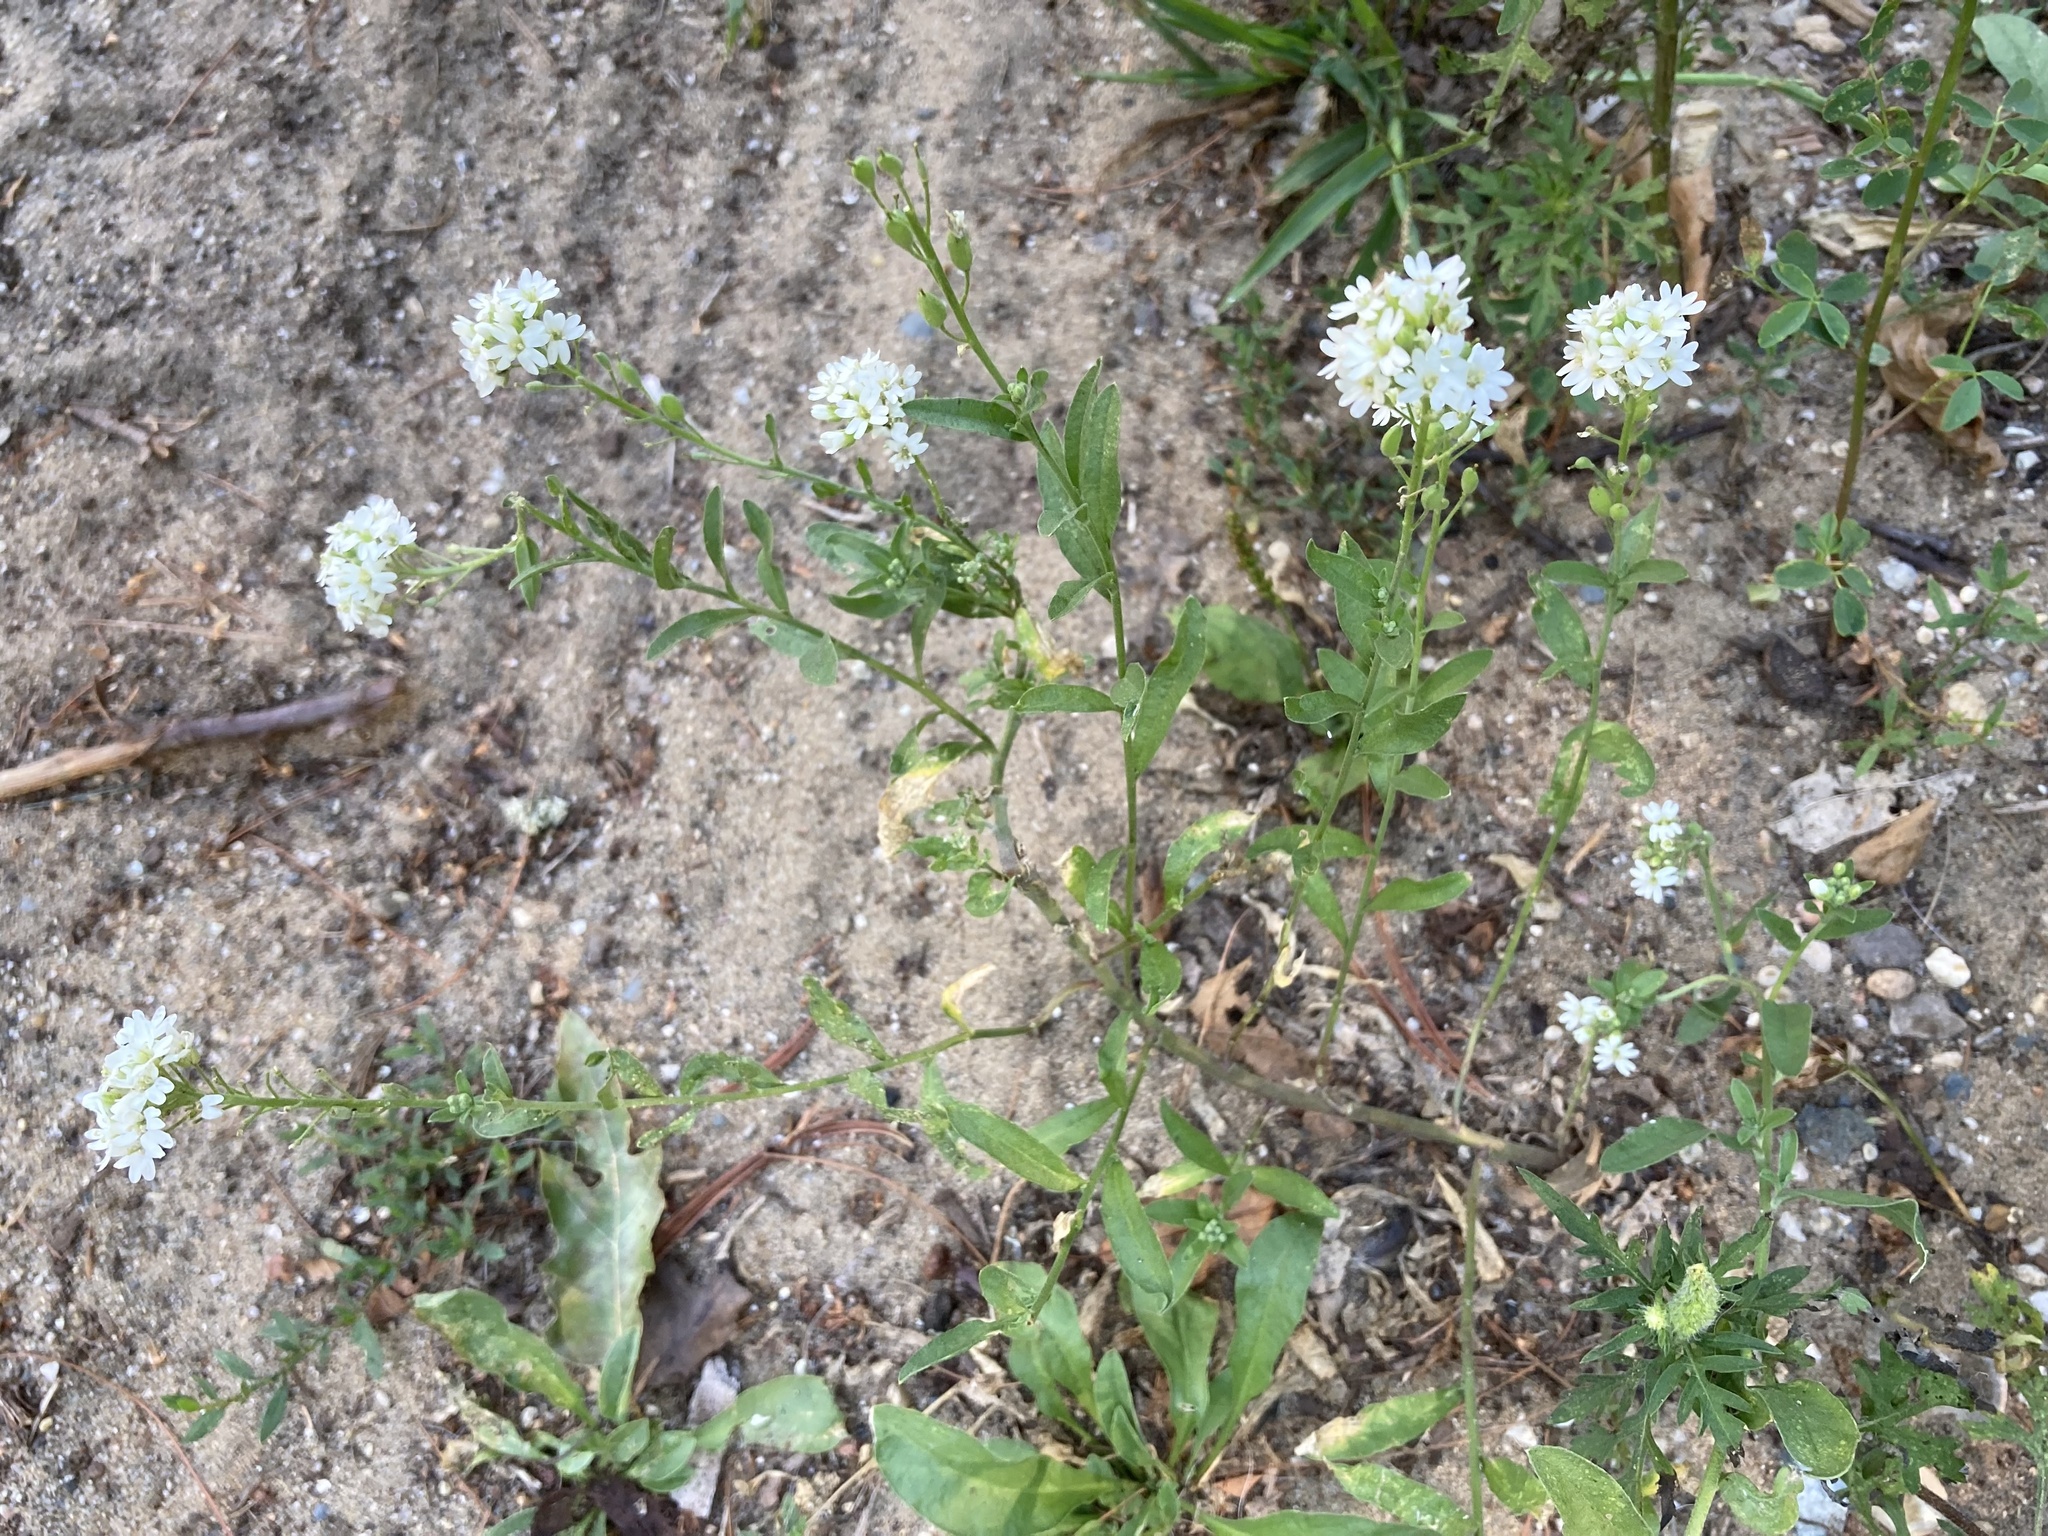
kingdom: Plantae
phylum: Tracheophyta
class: Magnoliopsida
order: Brassicales
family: Brassicaceae
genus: Berteroa
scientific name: Berteroa incana
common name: Hoary alison
